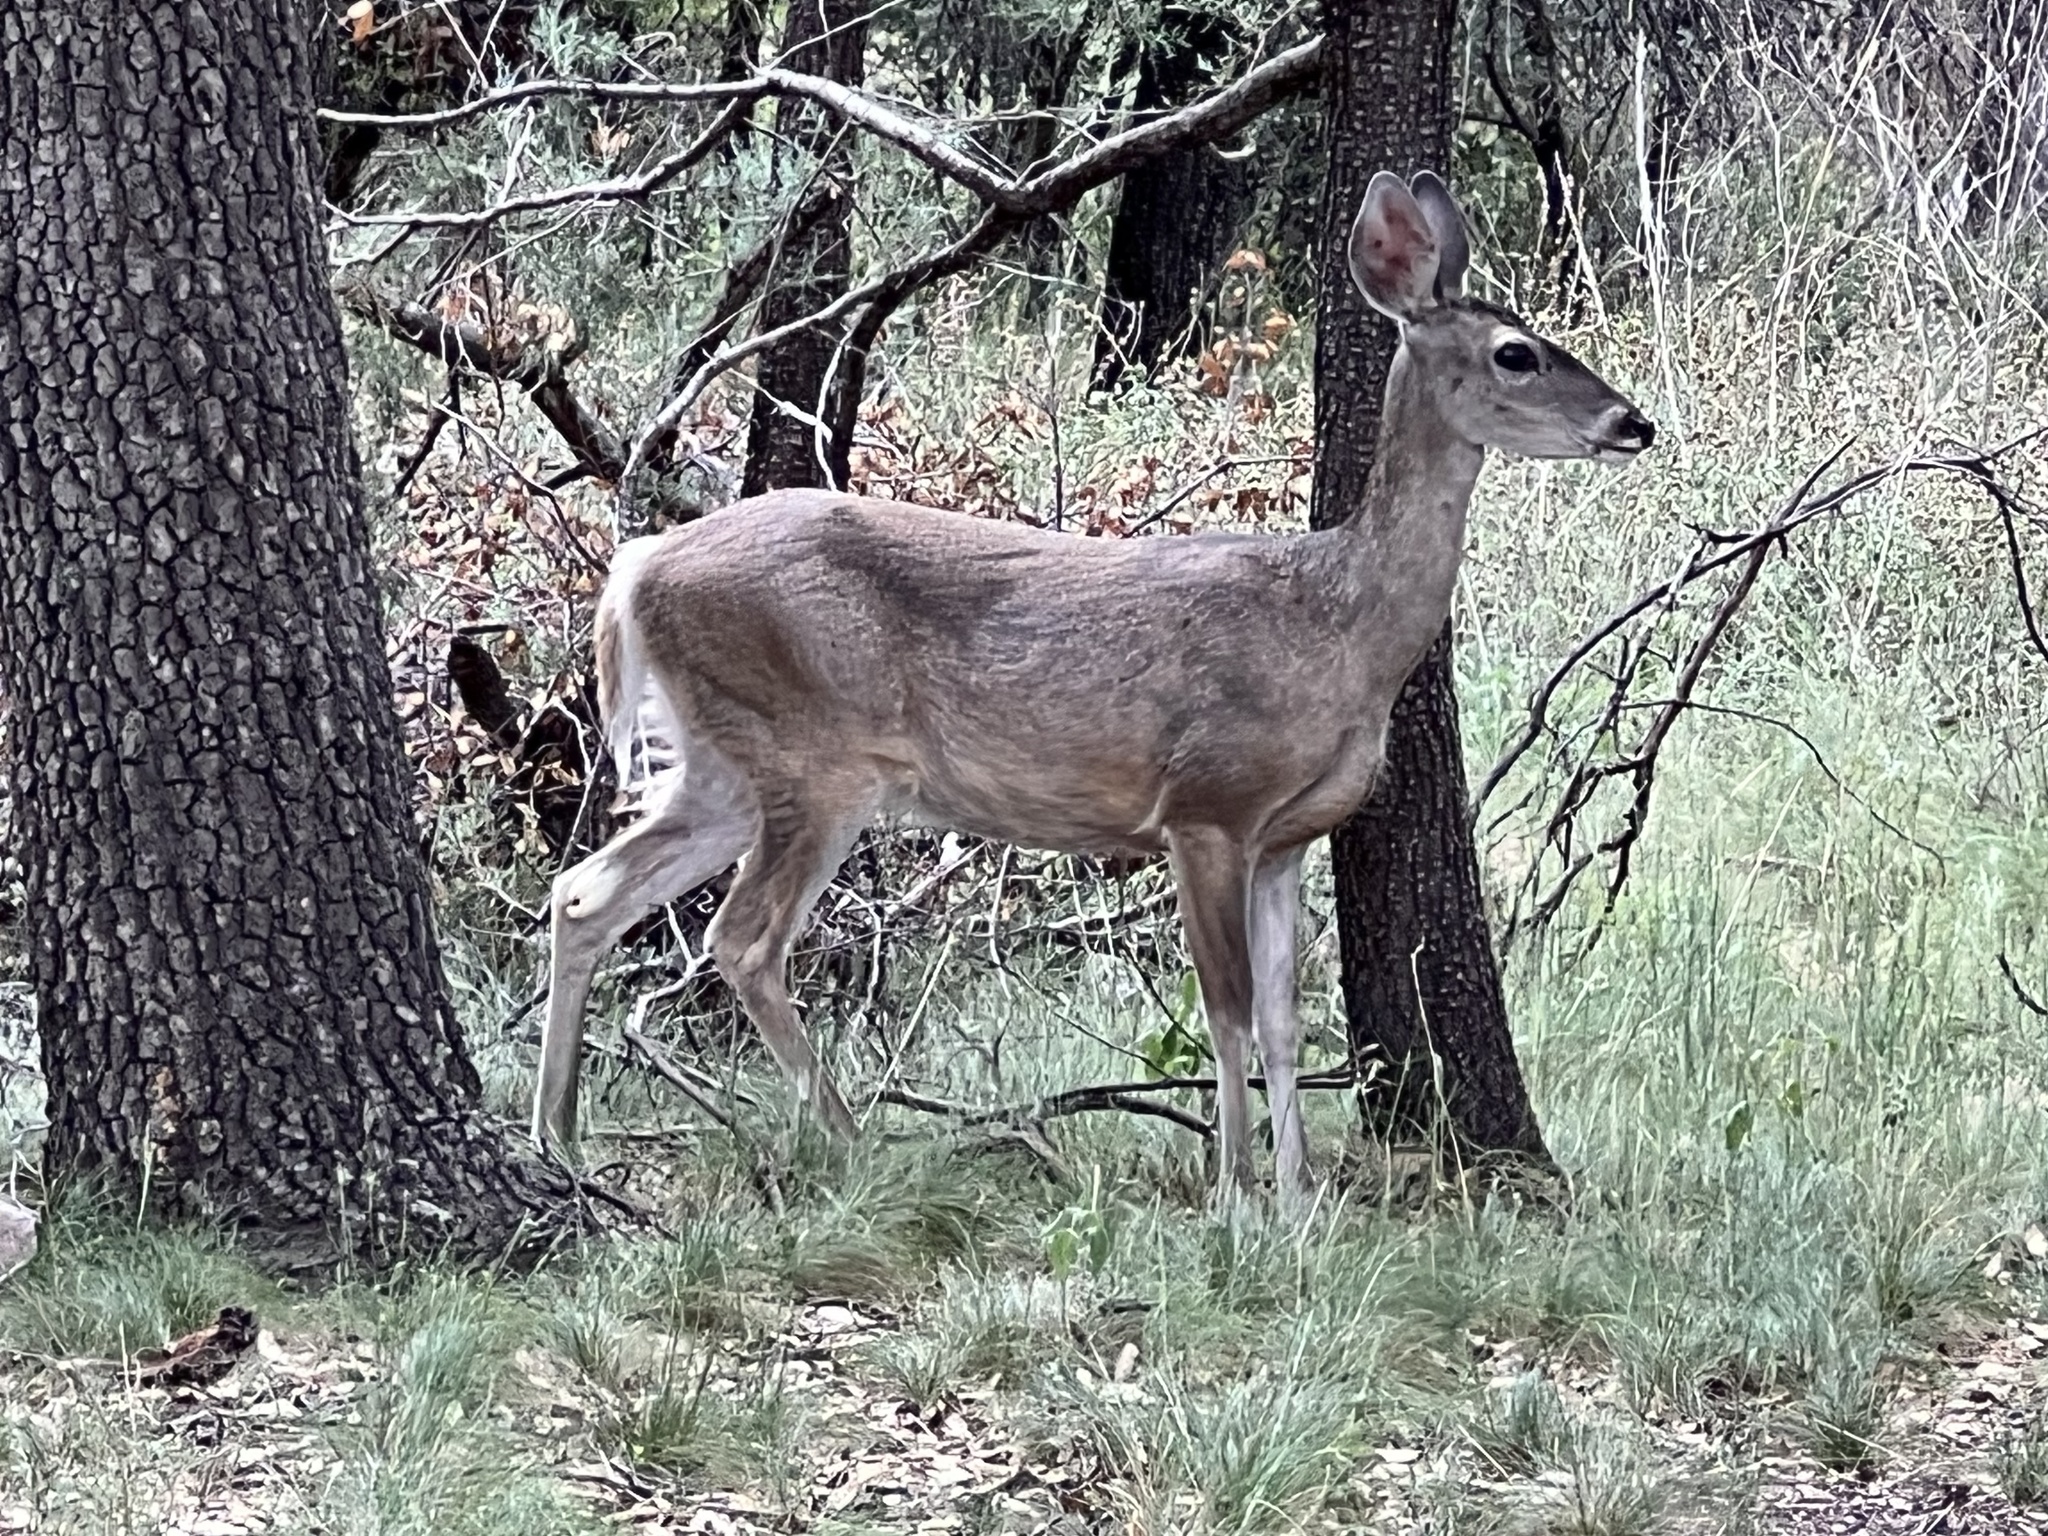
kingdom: Animalia
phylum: Chordata
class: Mammalia
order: Artiodactyla
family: Cervidae
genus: Odocoileus
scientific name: Odocoileus virginianus
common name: White-tailed deer
